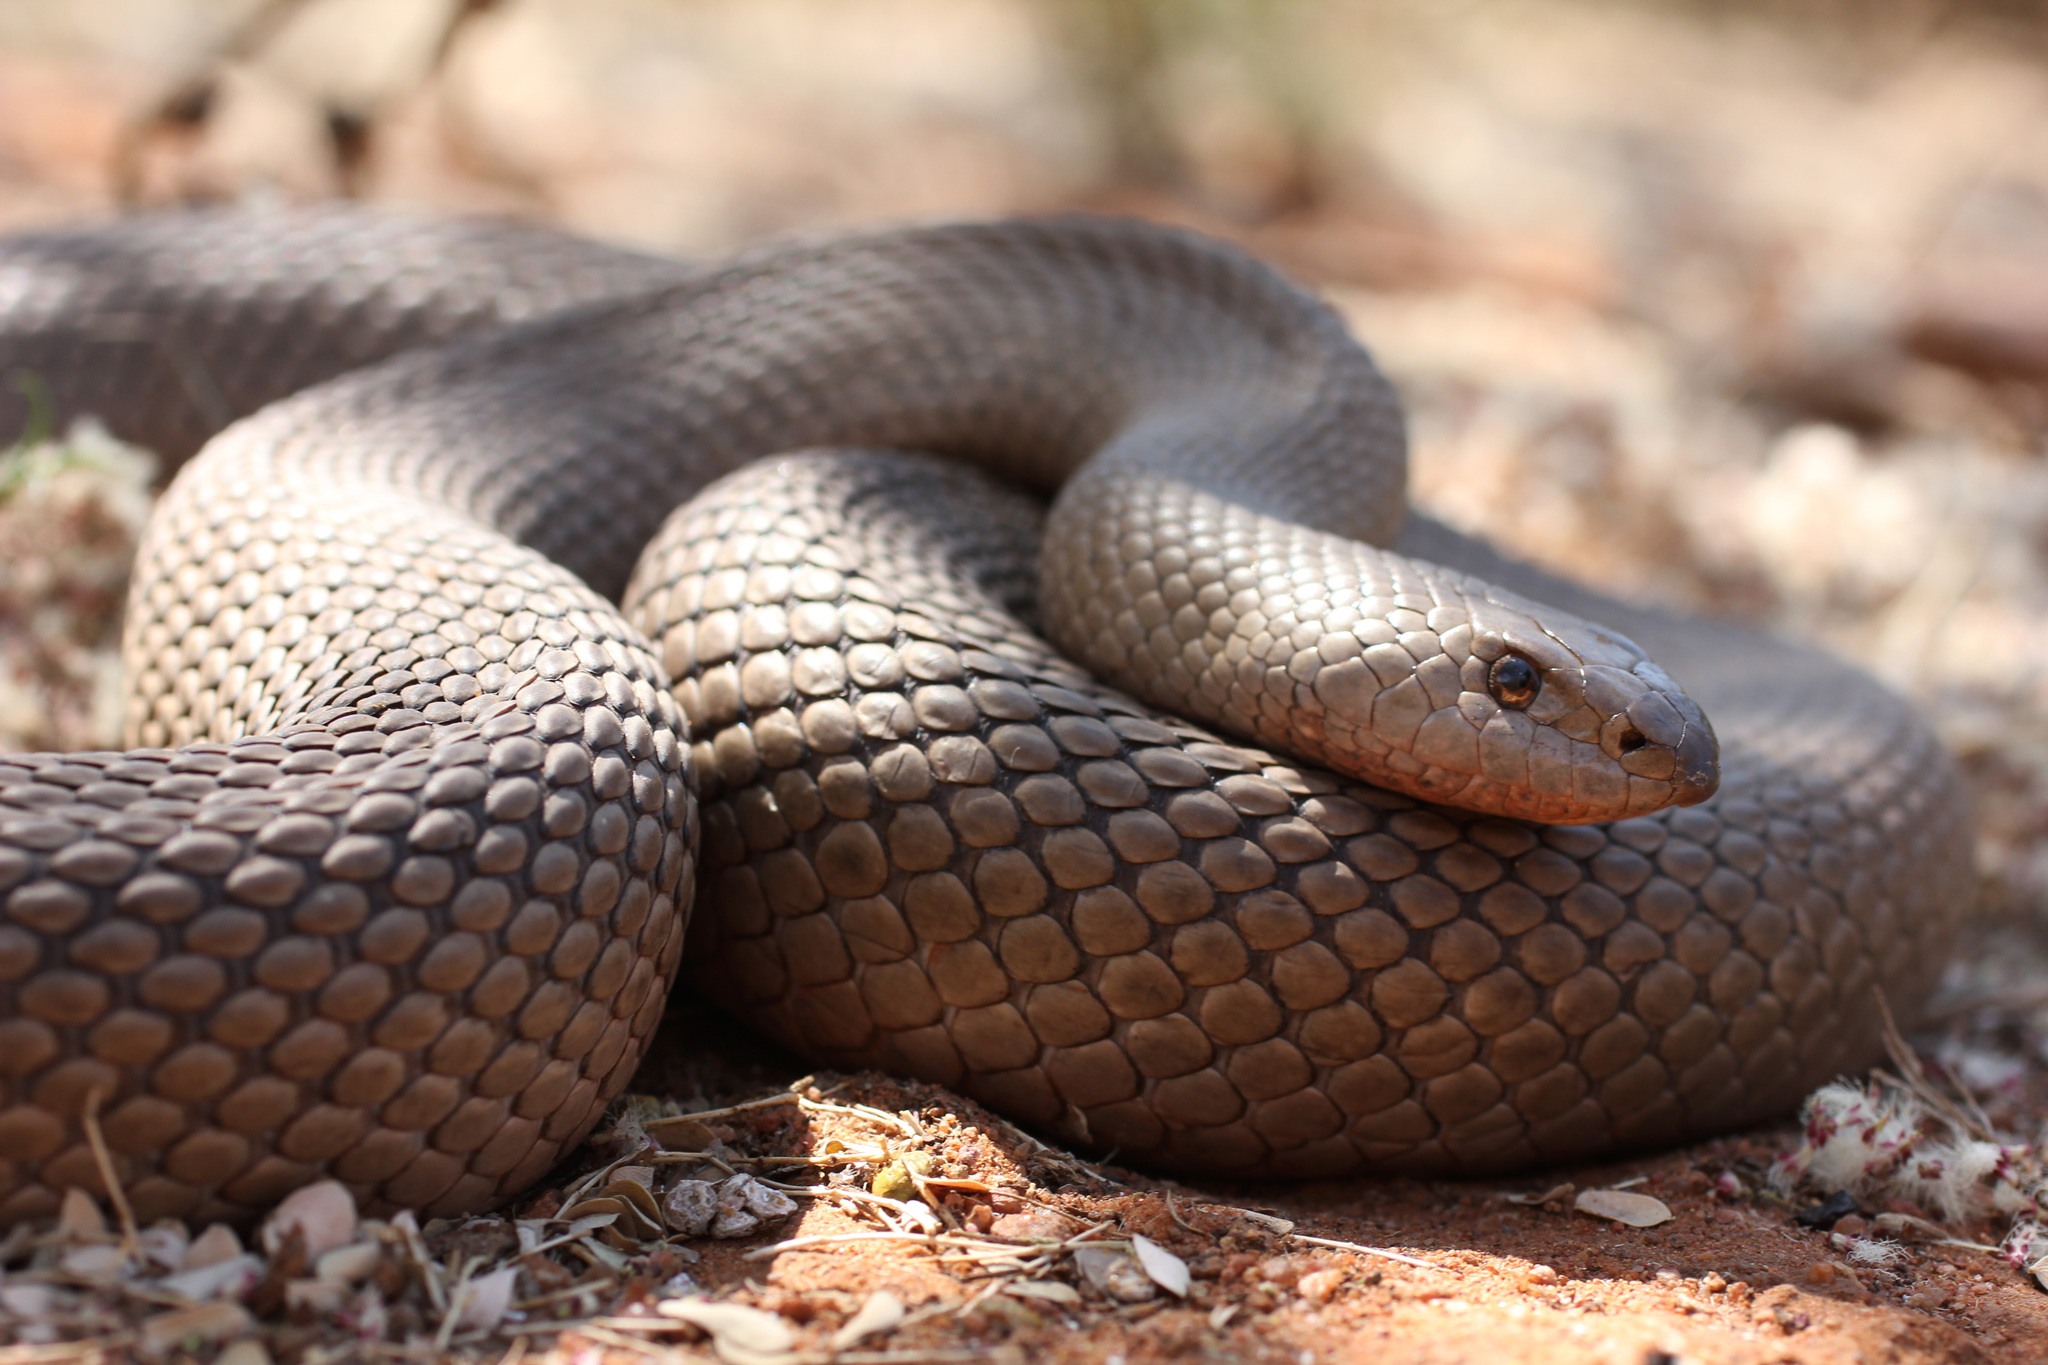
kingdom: Animalia
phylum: Chordata
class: Squamata
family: Pseudaspididae
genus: Pseudaspis
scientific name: Pseudaspis cana
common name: Mole snake
